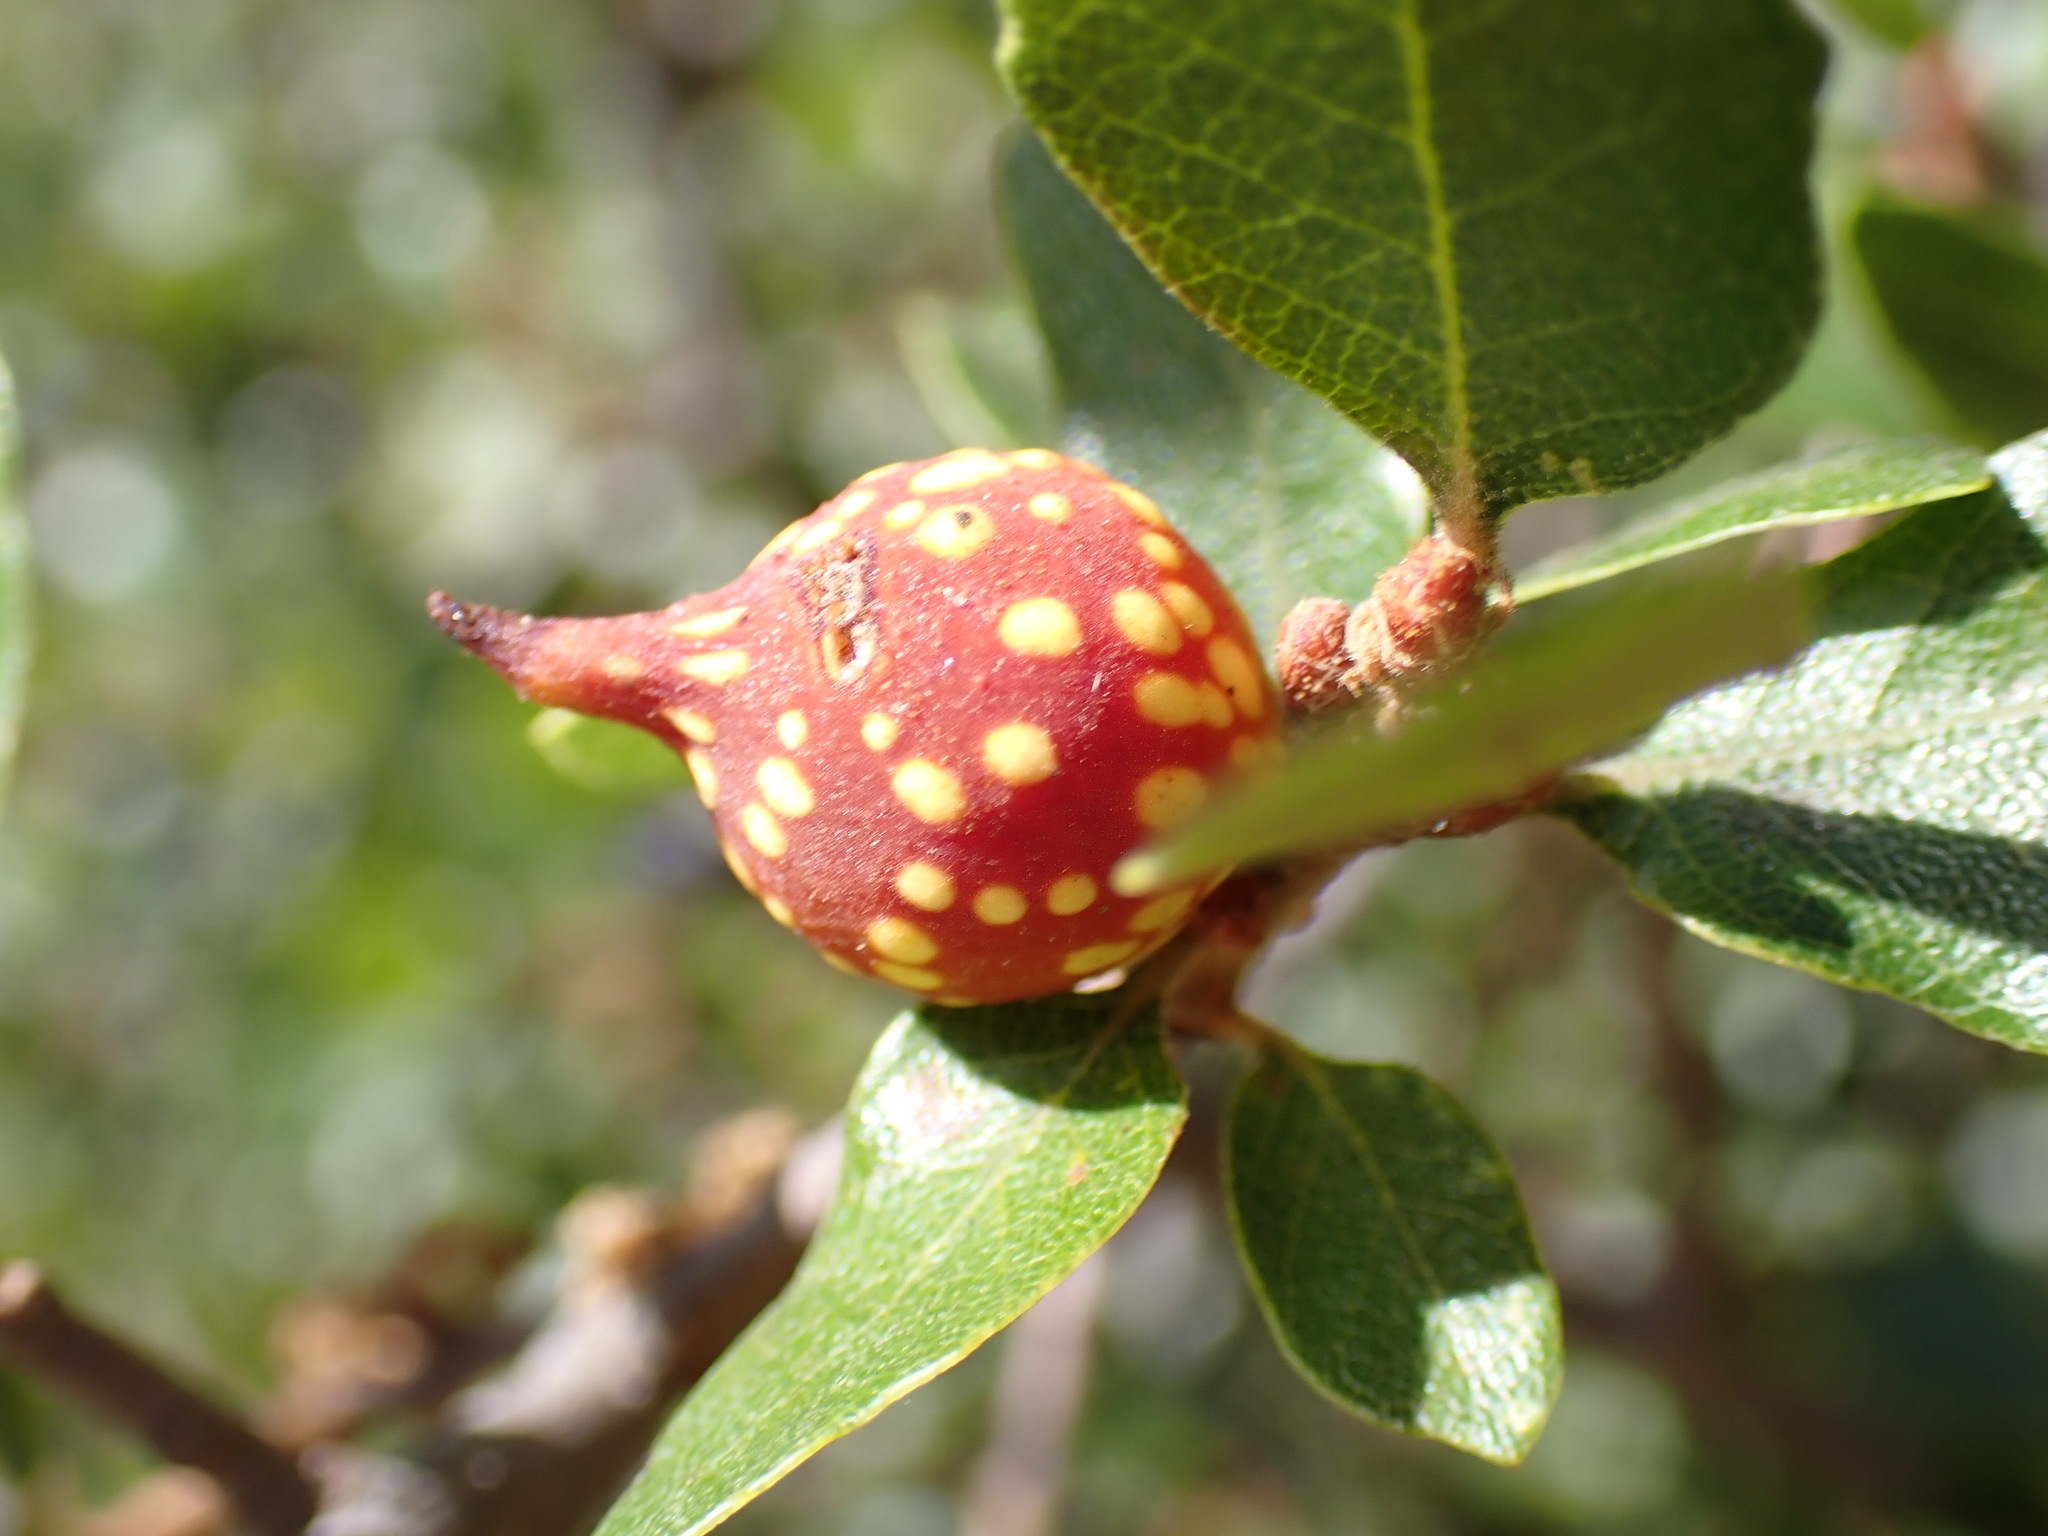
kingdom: Animalia
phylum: Arthropoda
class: Insecta
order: Hymenoptera
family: Cynipidae
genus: Burnettweldia
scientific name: Burnettweldia
